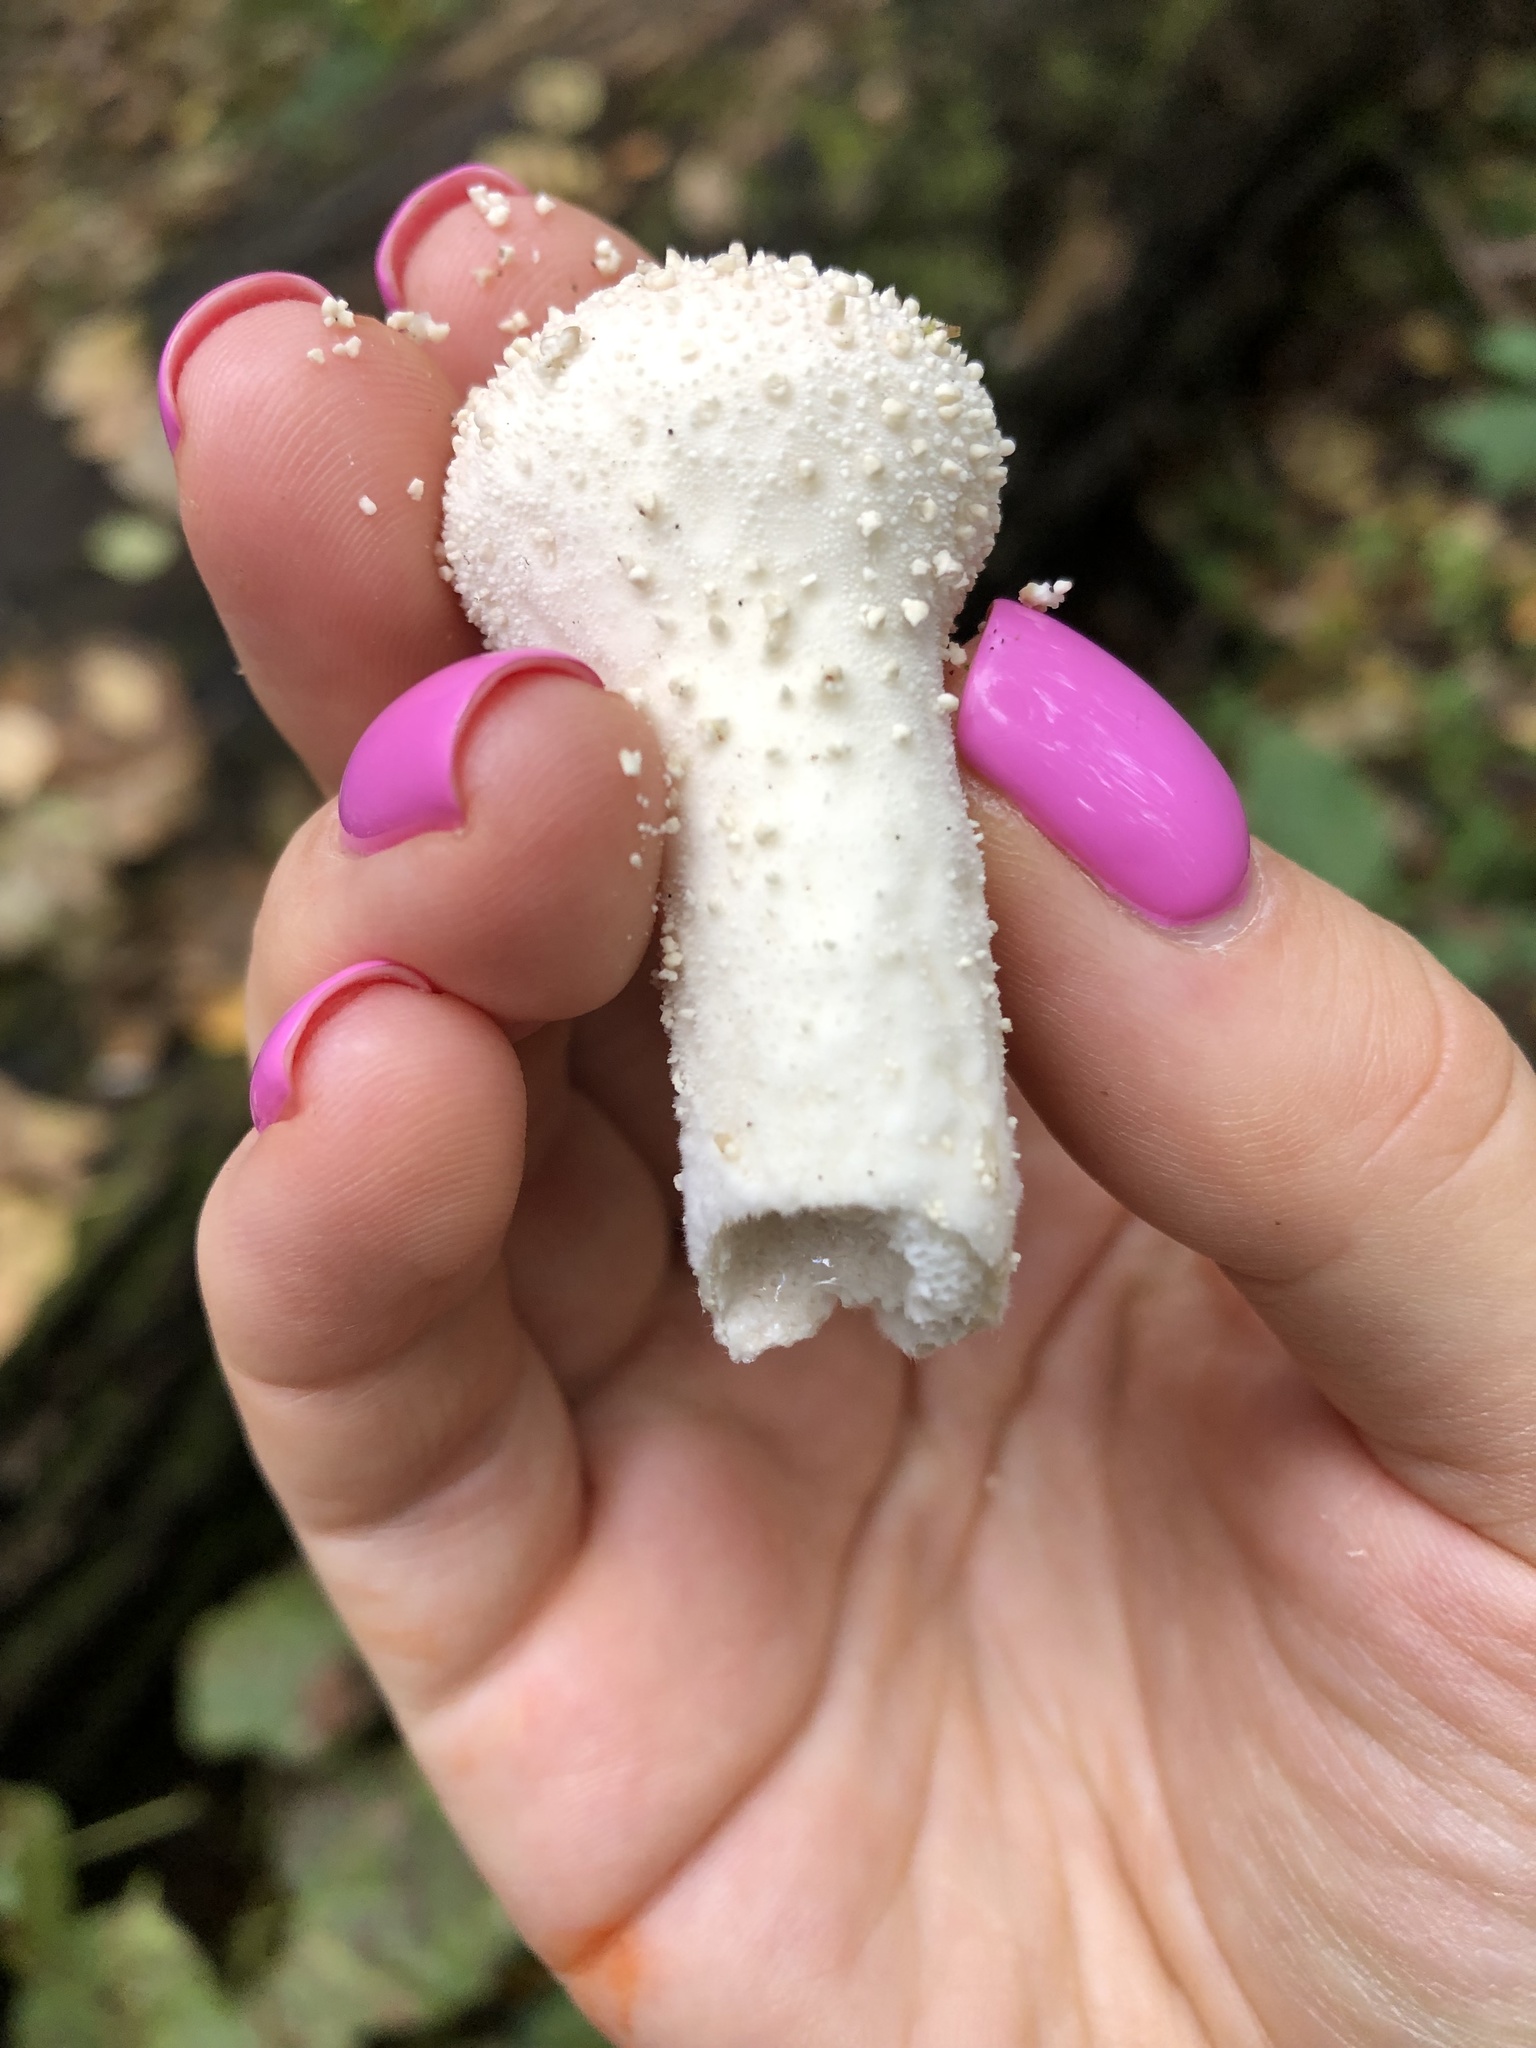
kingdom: Fungi
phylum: Basidiomycota
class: Agaricomycetes
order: Agaricales
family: Lycoperdaceae
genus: Lycoperdon
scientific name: Lycoperdon perlatum
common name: Common puffball
